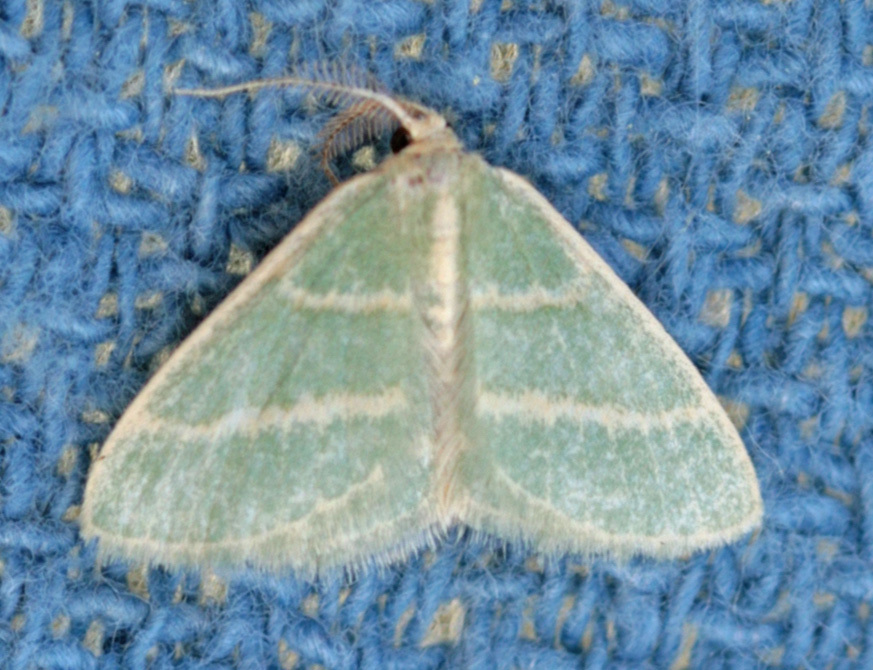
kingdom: Animalia
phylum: Arthropoda
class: Insecta
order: Lepidoptera
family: Geometridae
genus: Chlorochlamys
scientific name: Chlorochlamys chloroleucaria
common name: Blackberry looper
